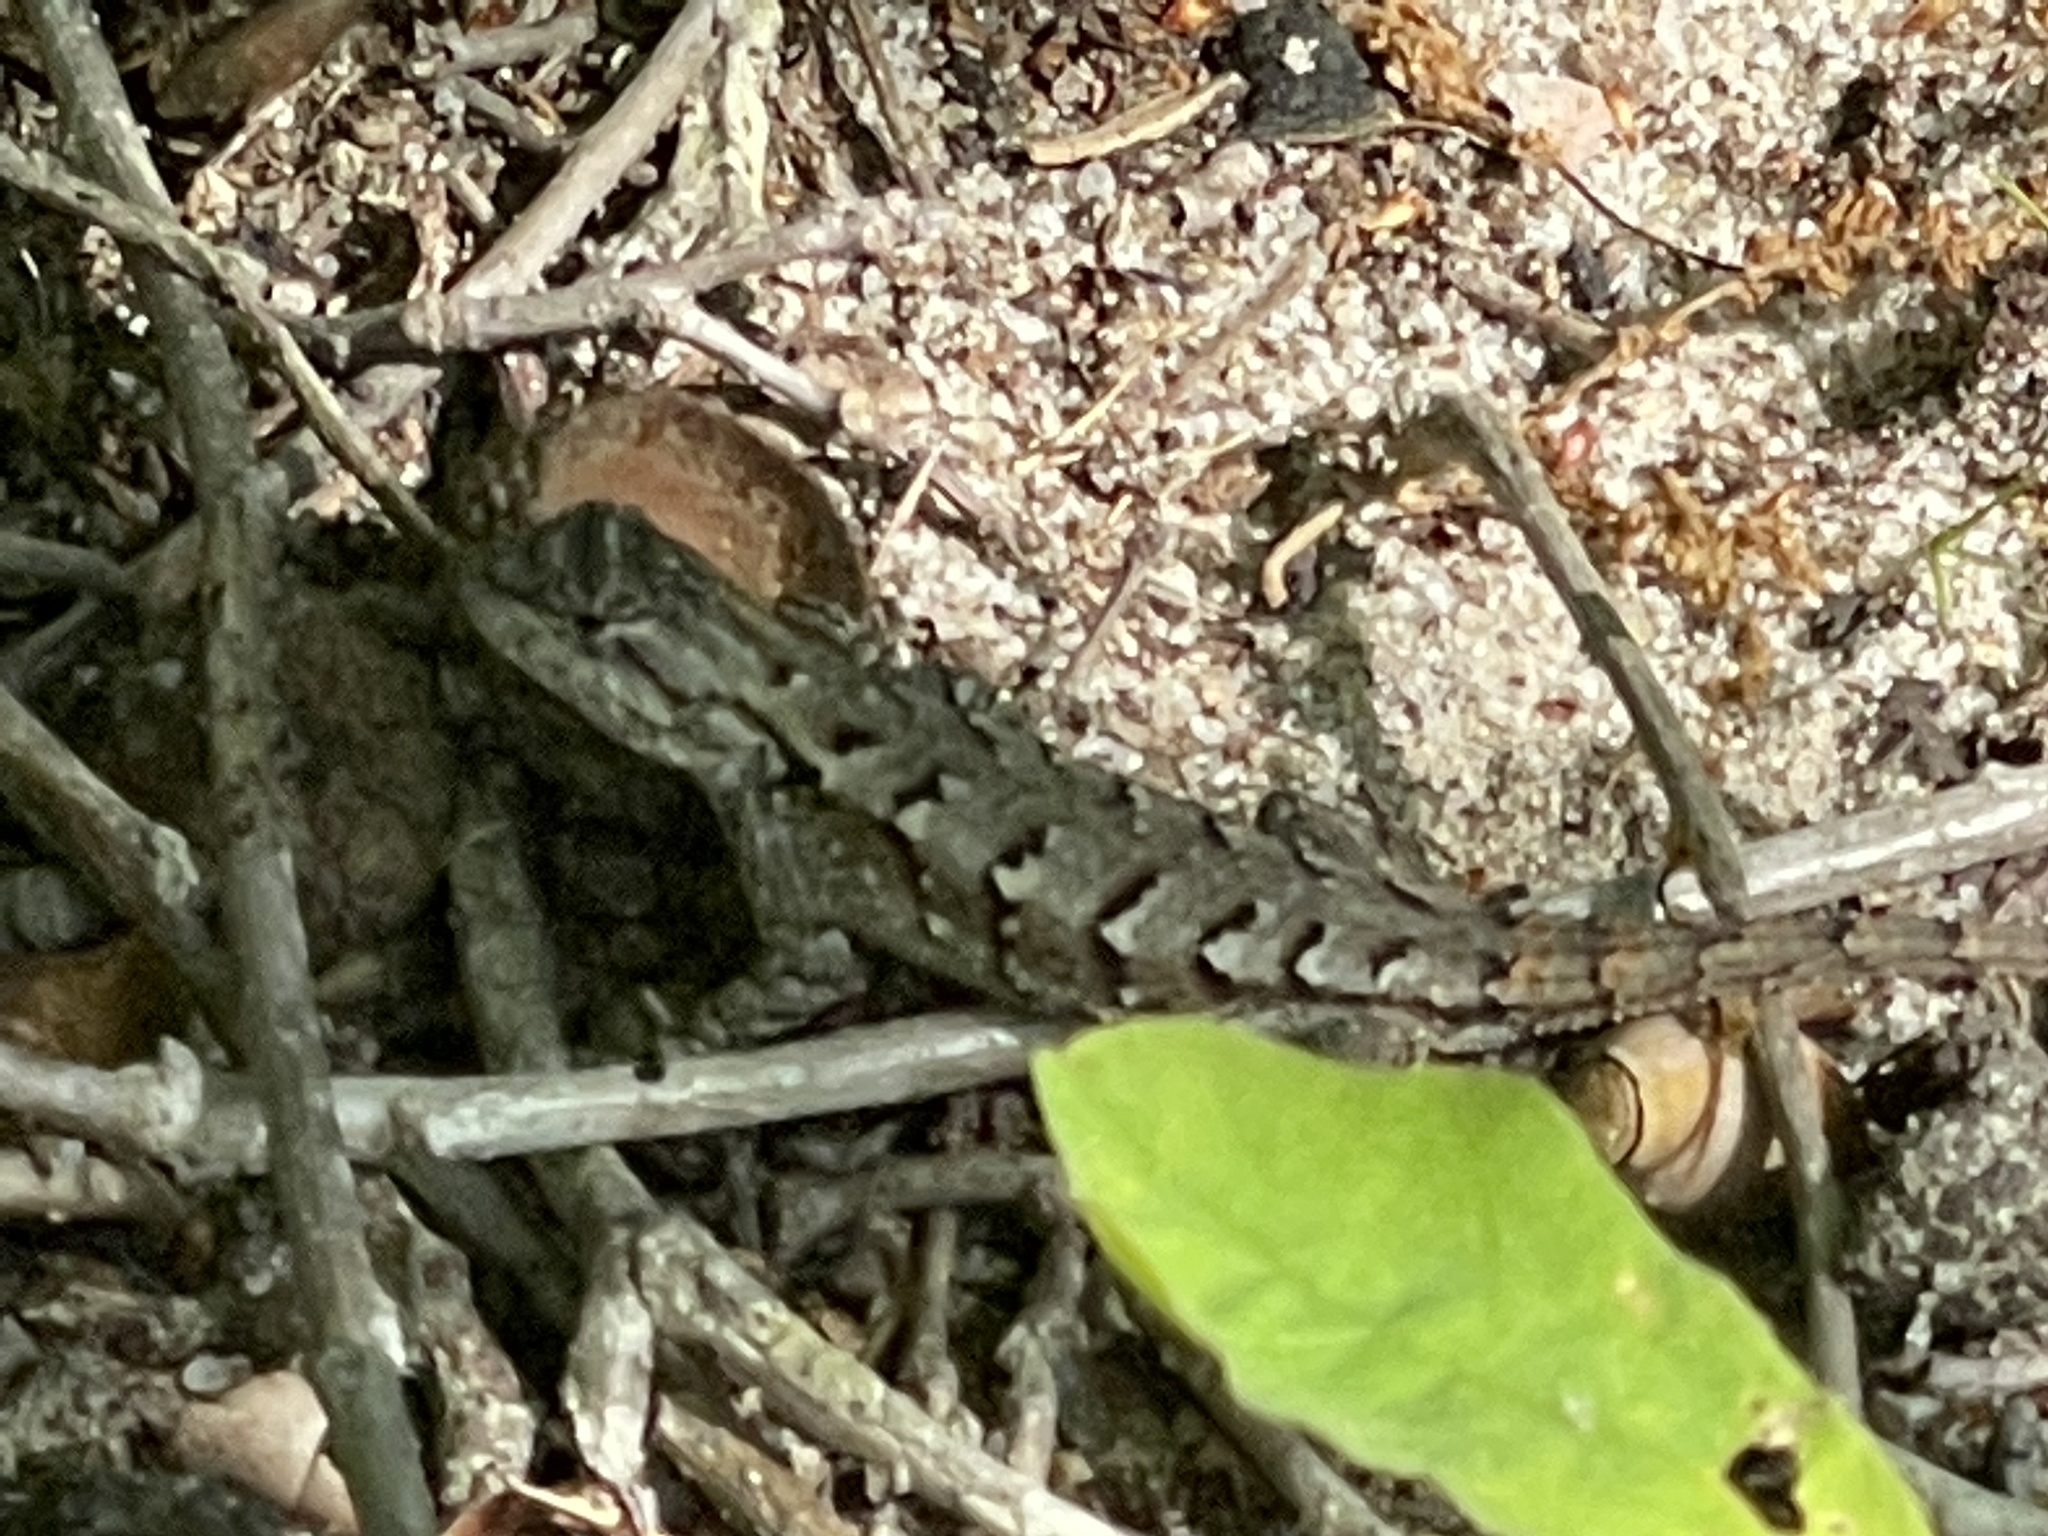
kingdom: Animalia
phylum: Chordata
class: Squamata
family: Phrynosomatidae
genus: Sceloporus
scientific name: Sceloporus undulatus
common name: Eastern fence lizard
